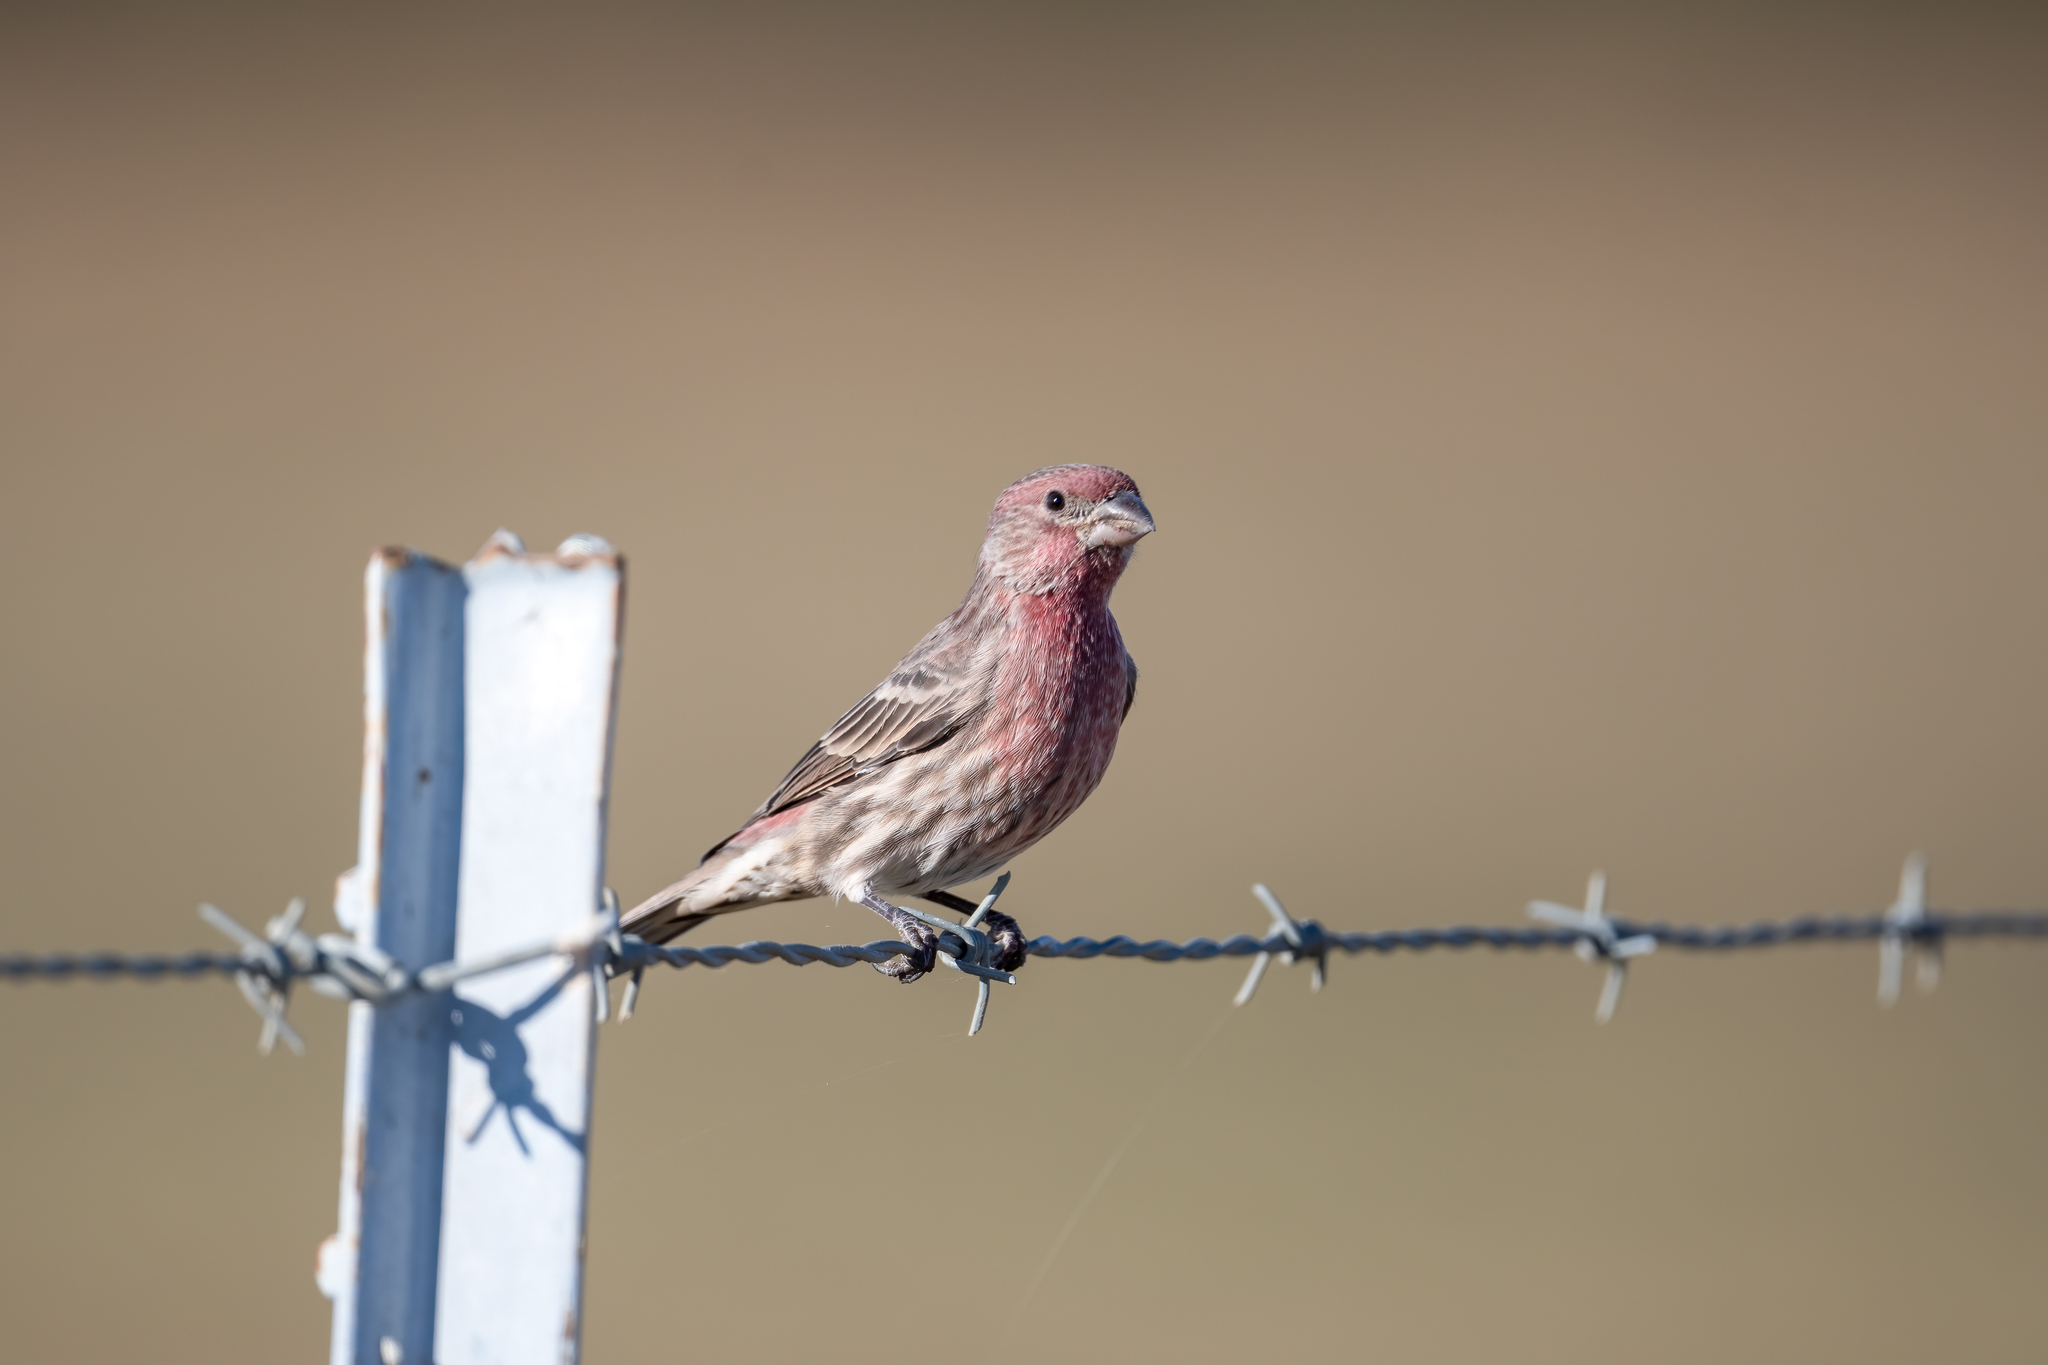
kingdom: Animalia
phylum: Chordata
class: Aves
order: Passeriformes
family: Fringillidae
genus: Haemorhous
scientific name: Haemorhous mexicanus
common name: House finch
